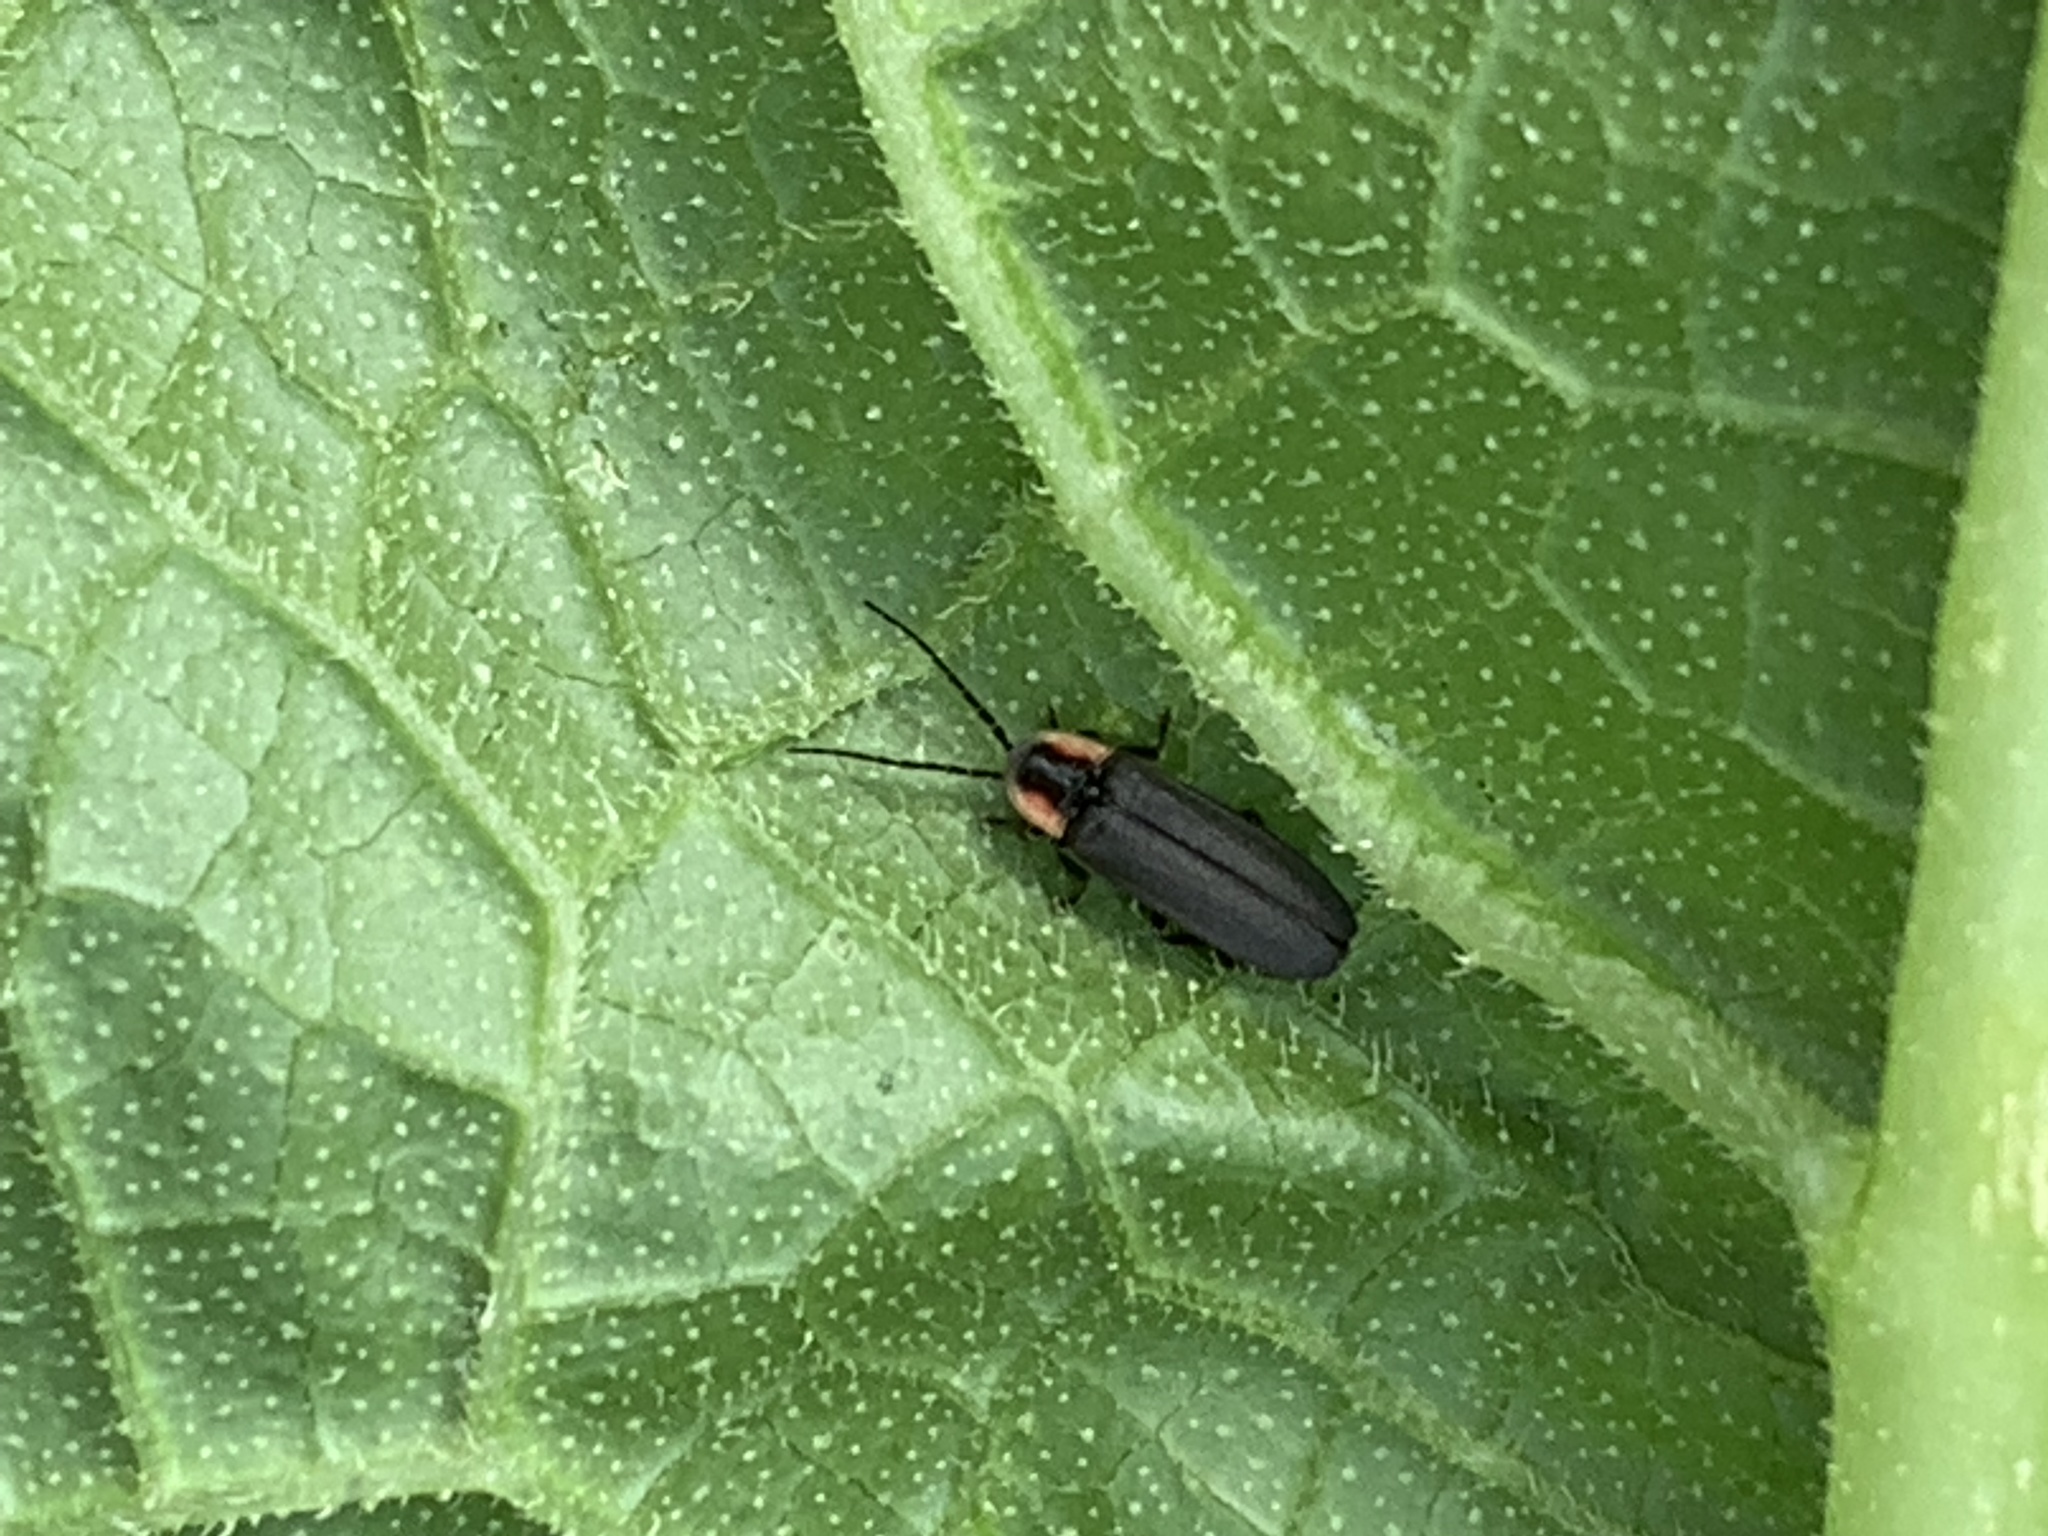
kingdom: Animalia
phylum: Arthropoda
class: Insecta
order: Coleoptera
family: Lampyridae
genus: Pyropyga
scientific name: Pyropyga
